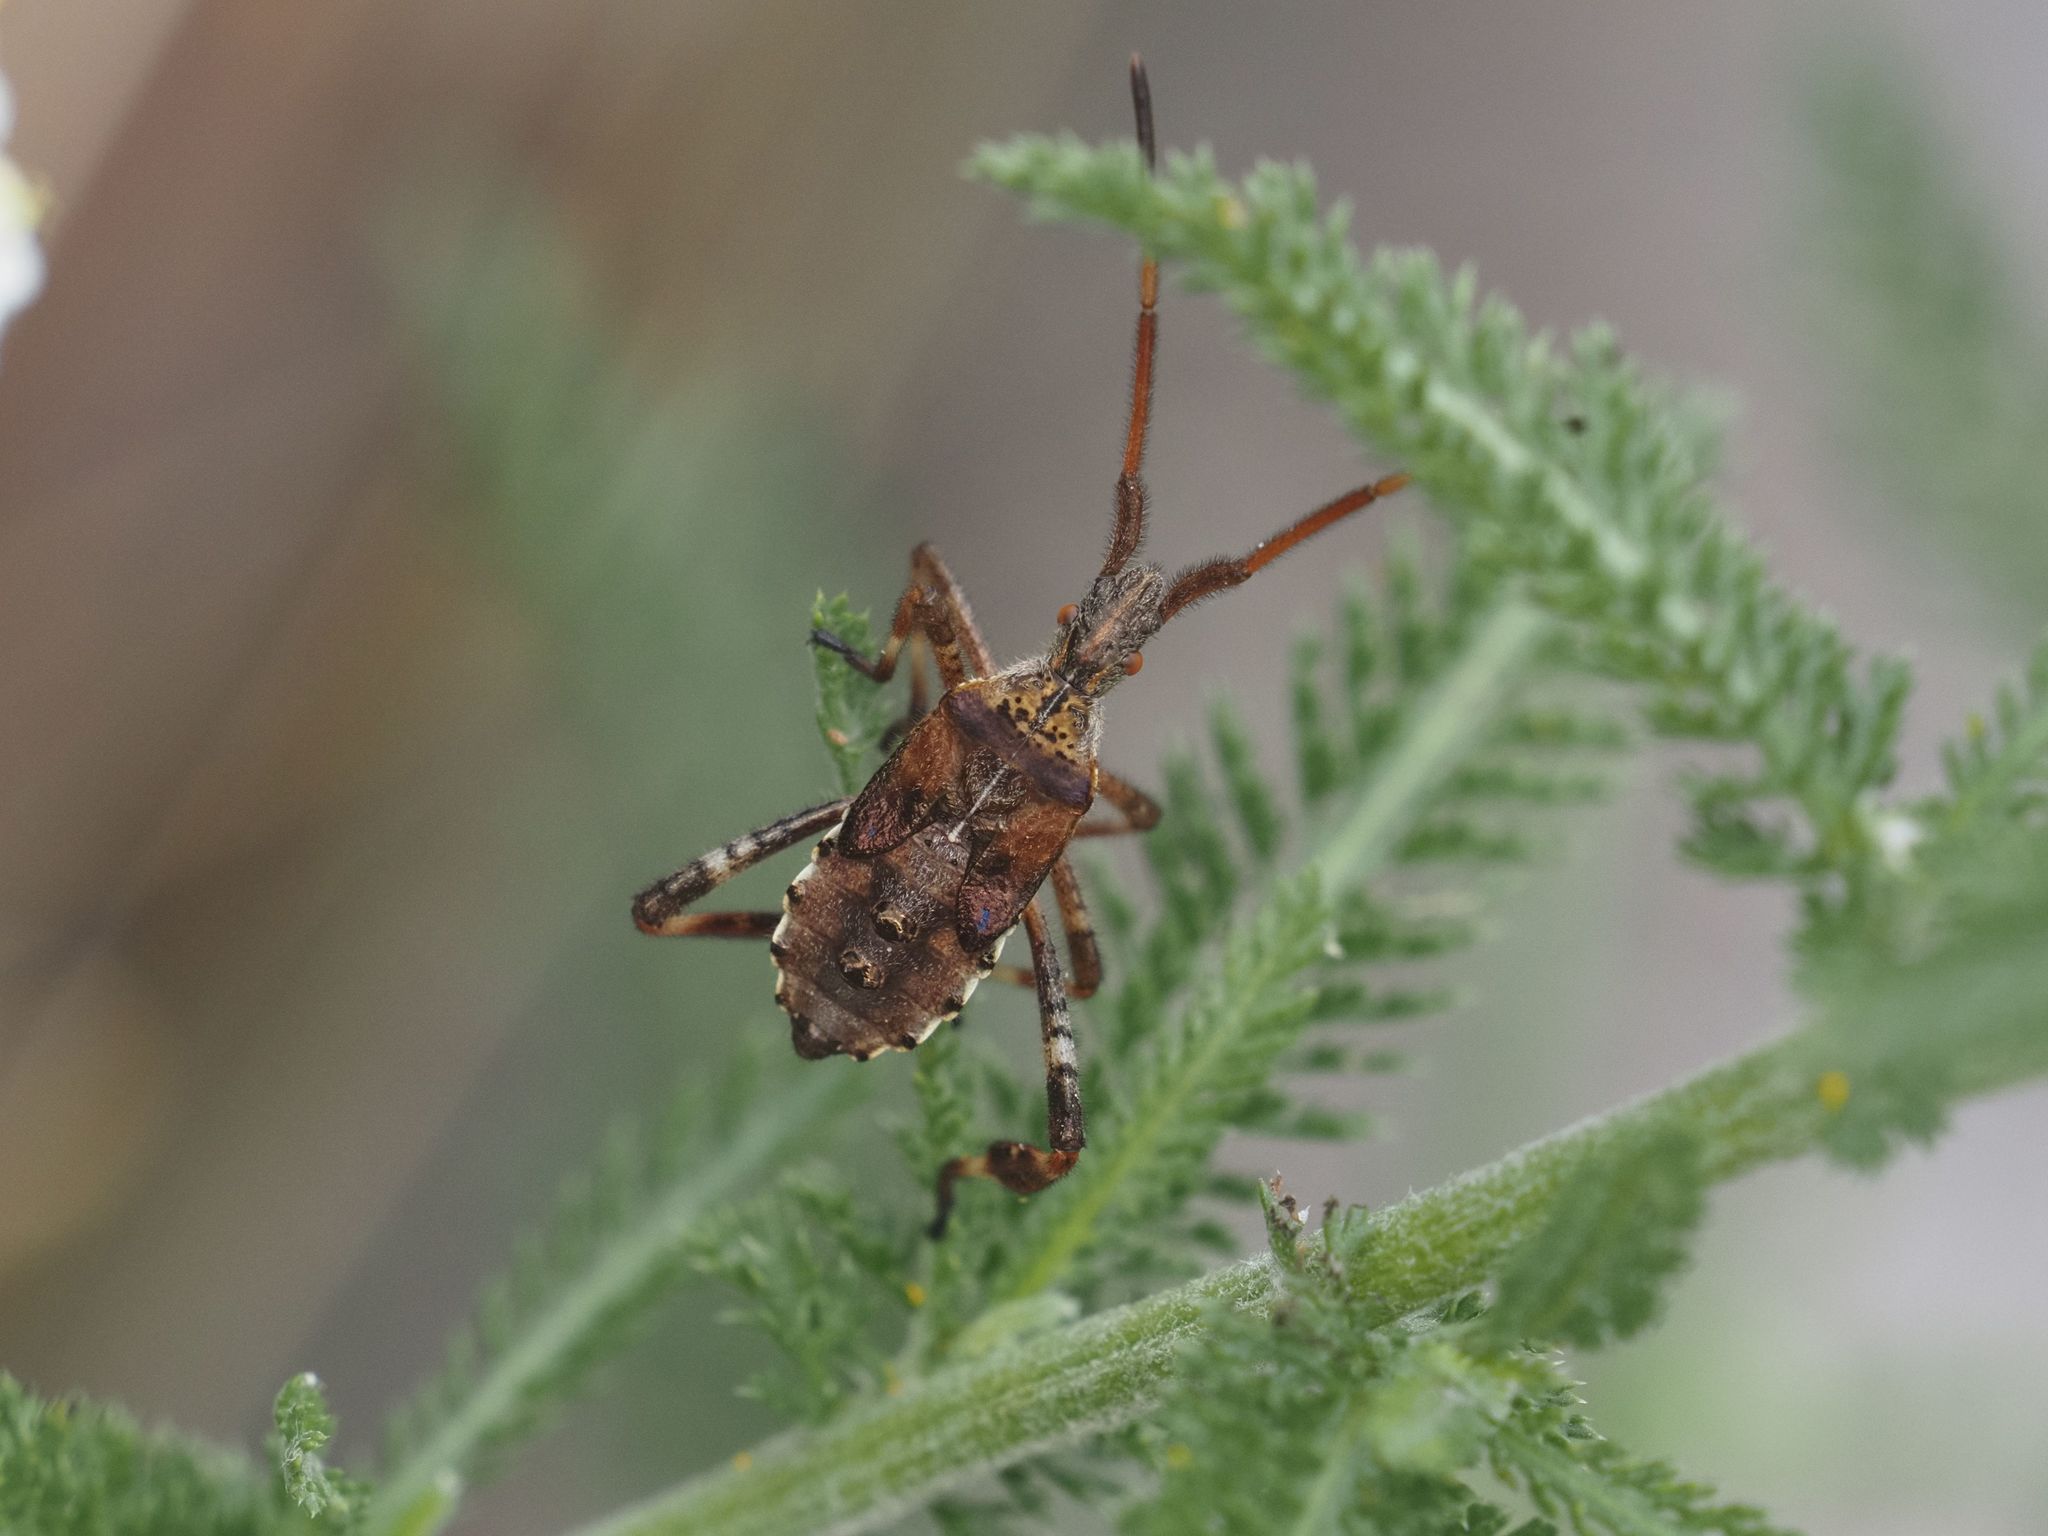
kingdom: Animalia
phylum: Arthropoda
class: Insecta
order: Hemiptera
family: Coreidae
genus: Leptoglossus
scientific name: Leptoglossus occidentalis
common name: Western conifer-seed bug
